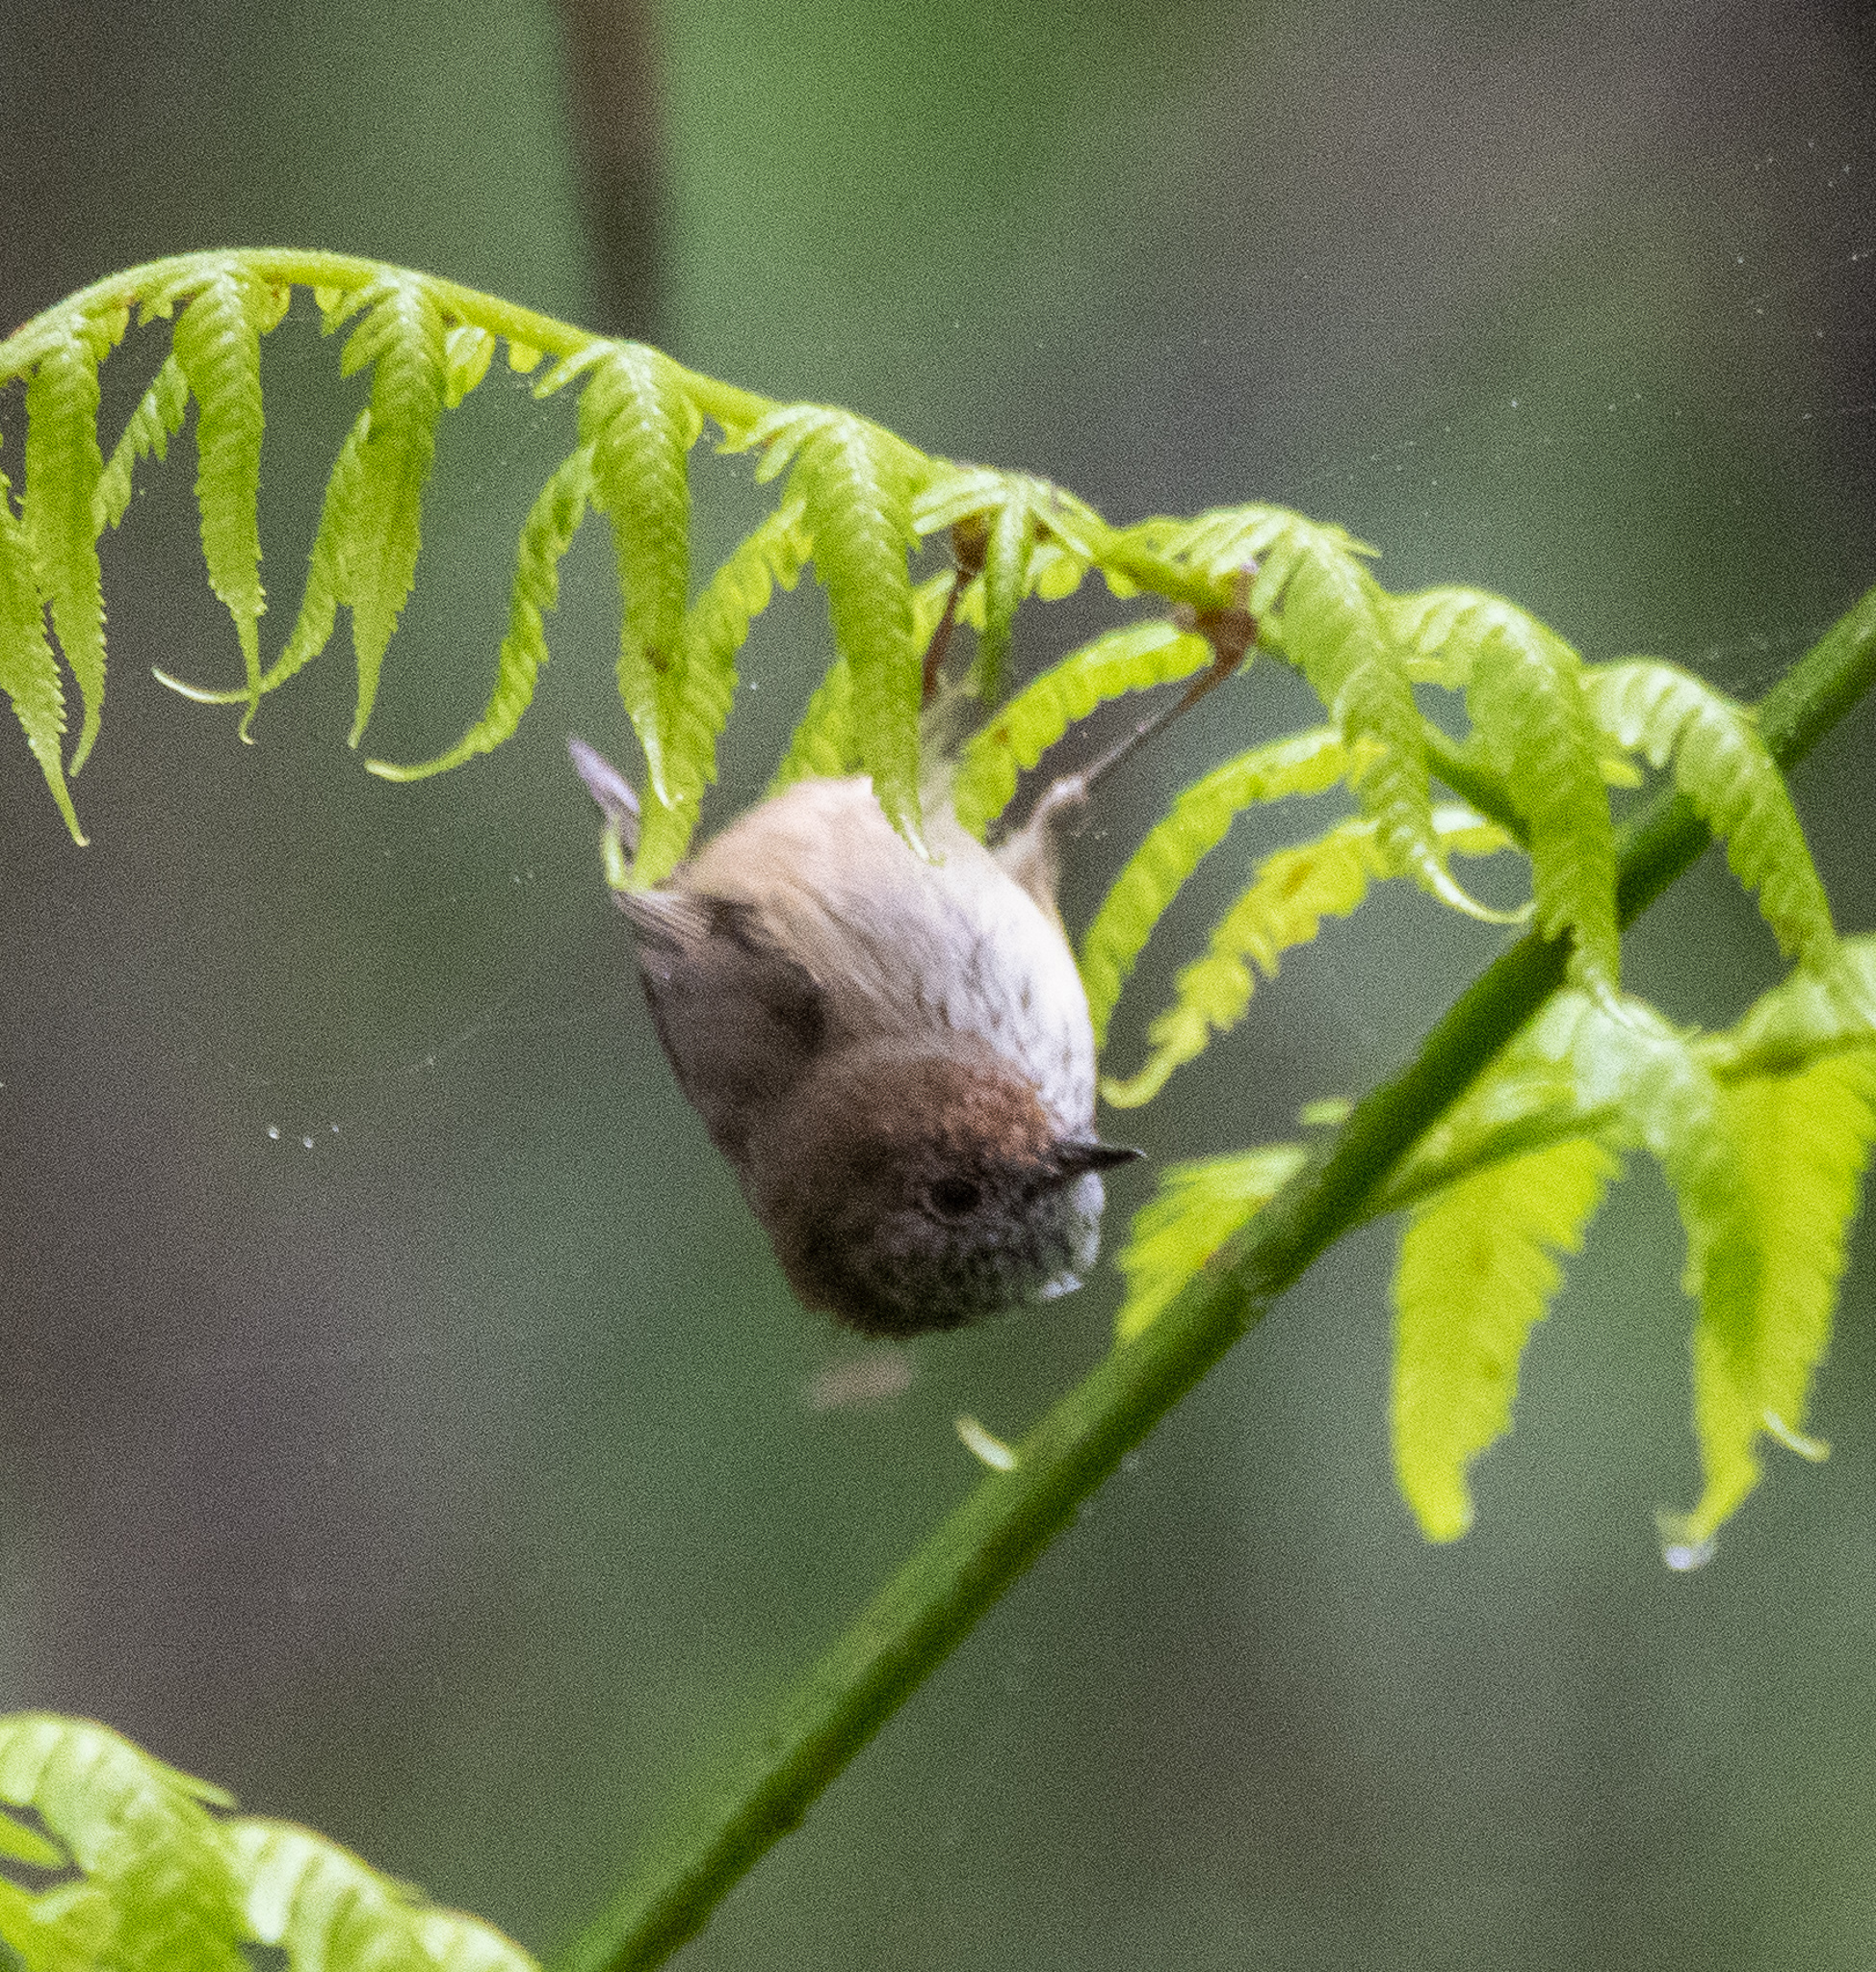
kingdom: Animalia
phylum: Chordata
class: Aves
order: Passeriformes
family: Acanthizidae
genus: Acanthiza
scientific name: Acanthiza pusilla
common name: Brown thornbill
